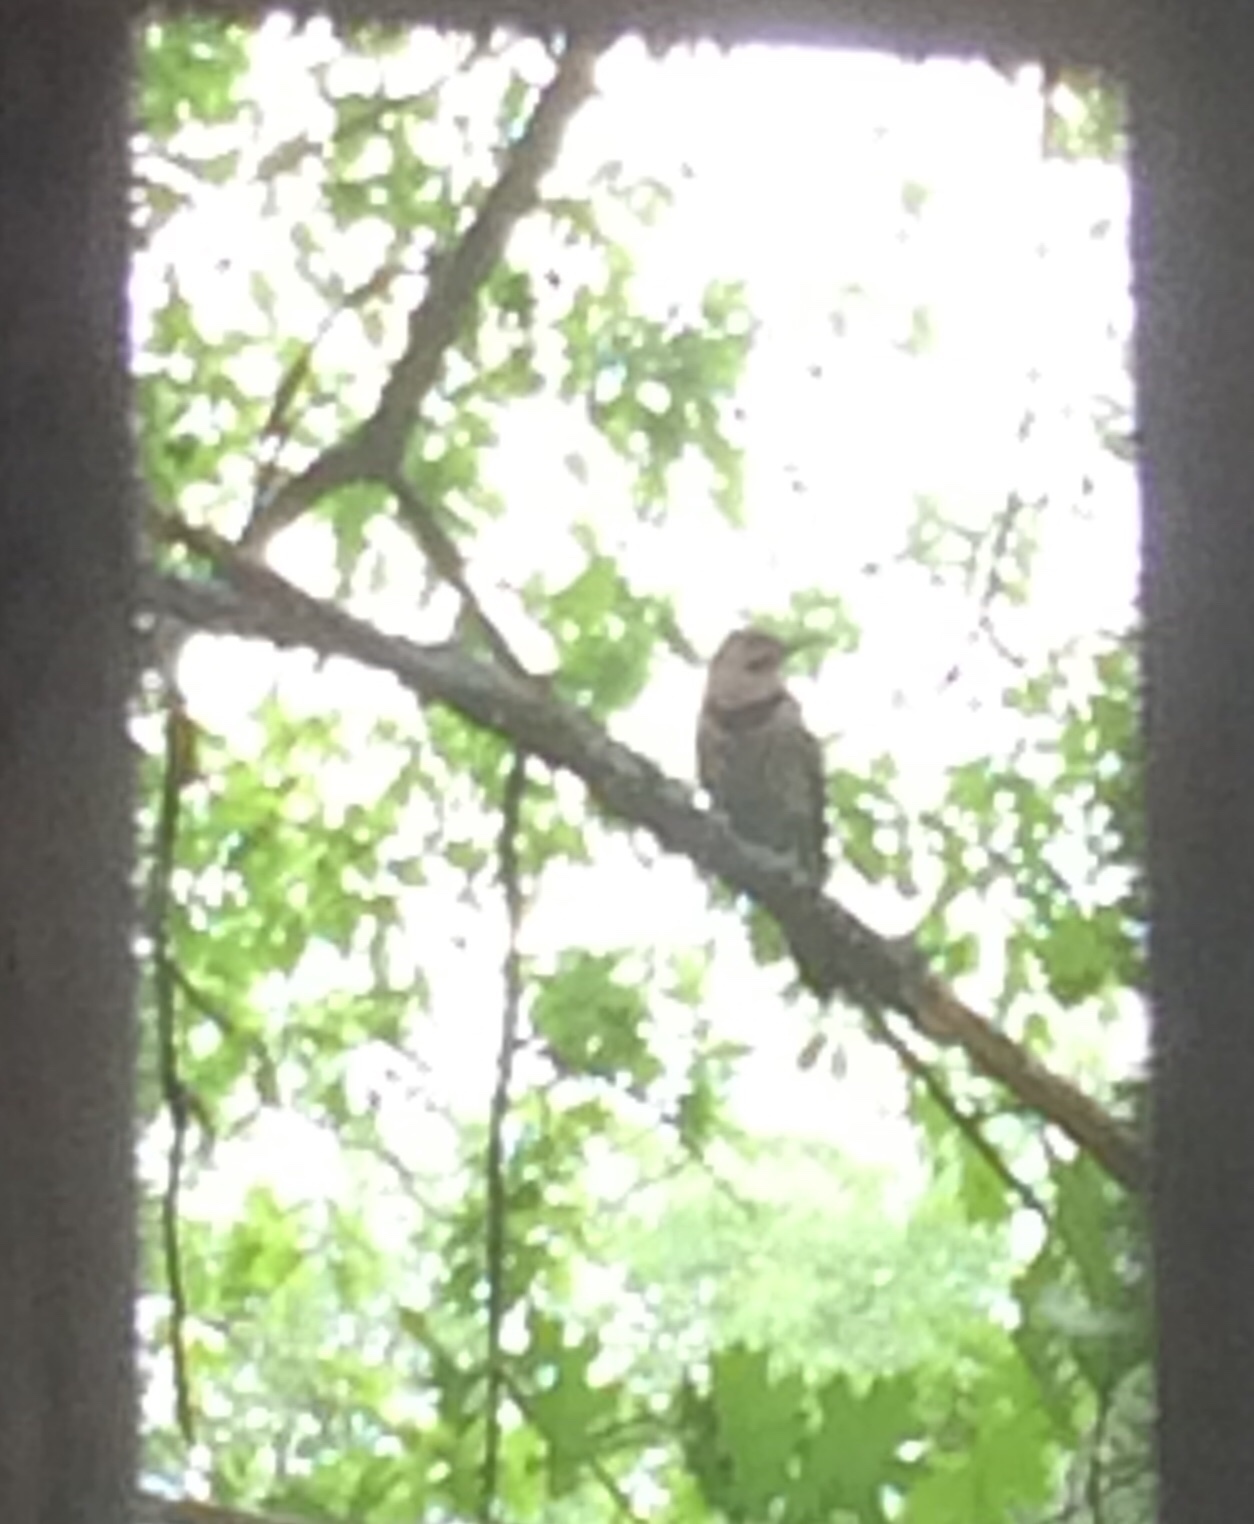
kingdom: Animalia
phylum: Chordata
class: Aves
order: Piciformes
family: Picidae
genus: Colaptes
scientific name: Colaptes auratus
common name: Northern flicker
